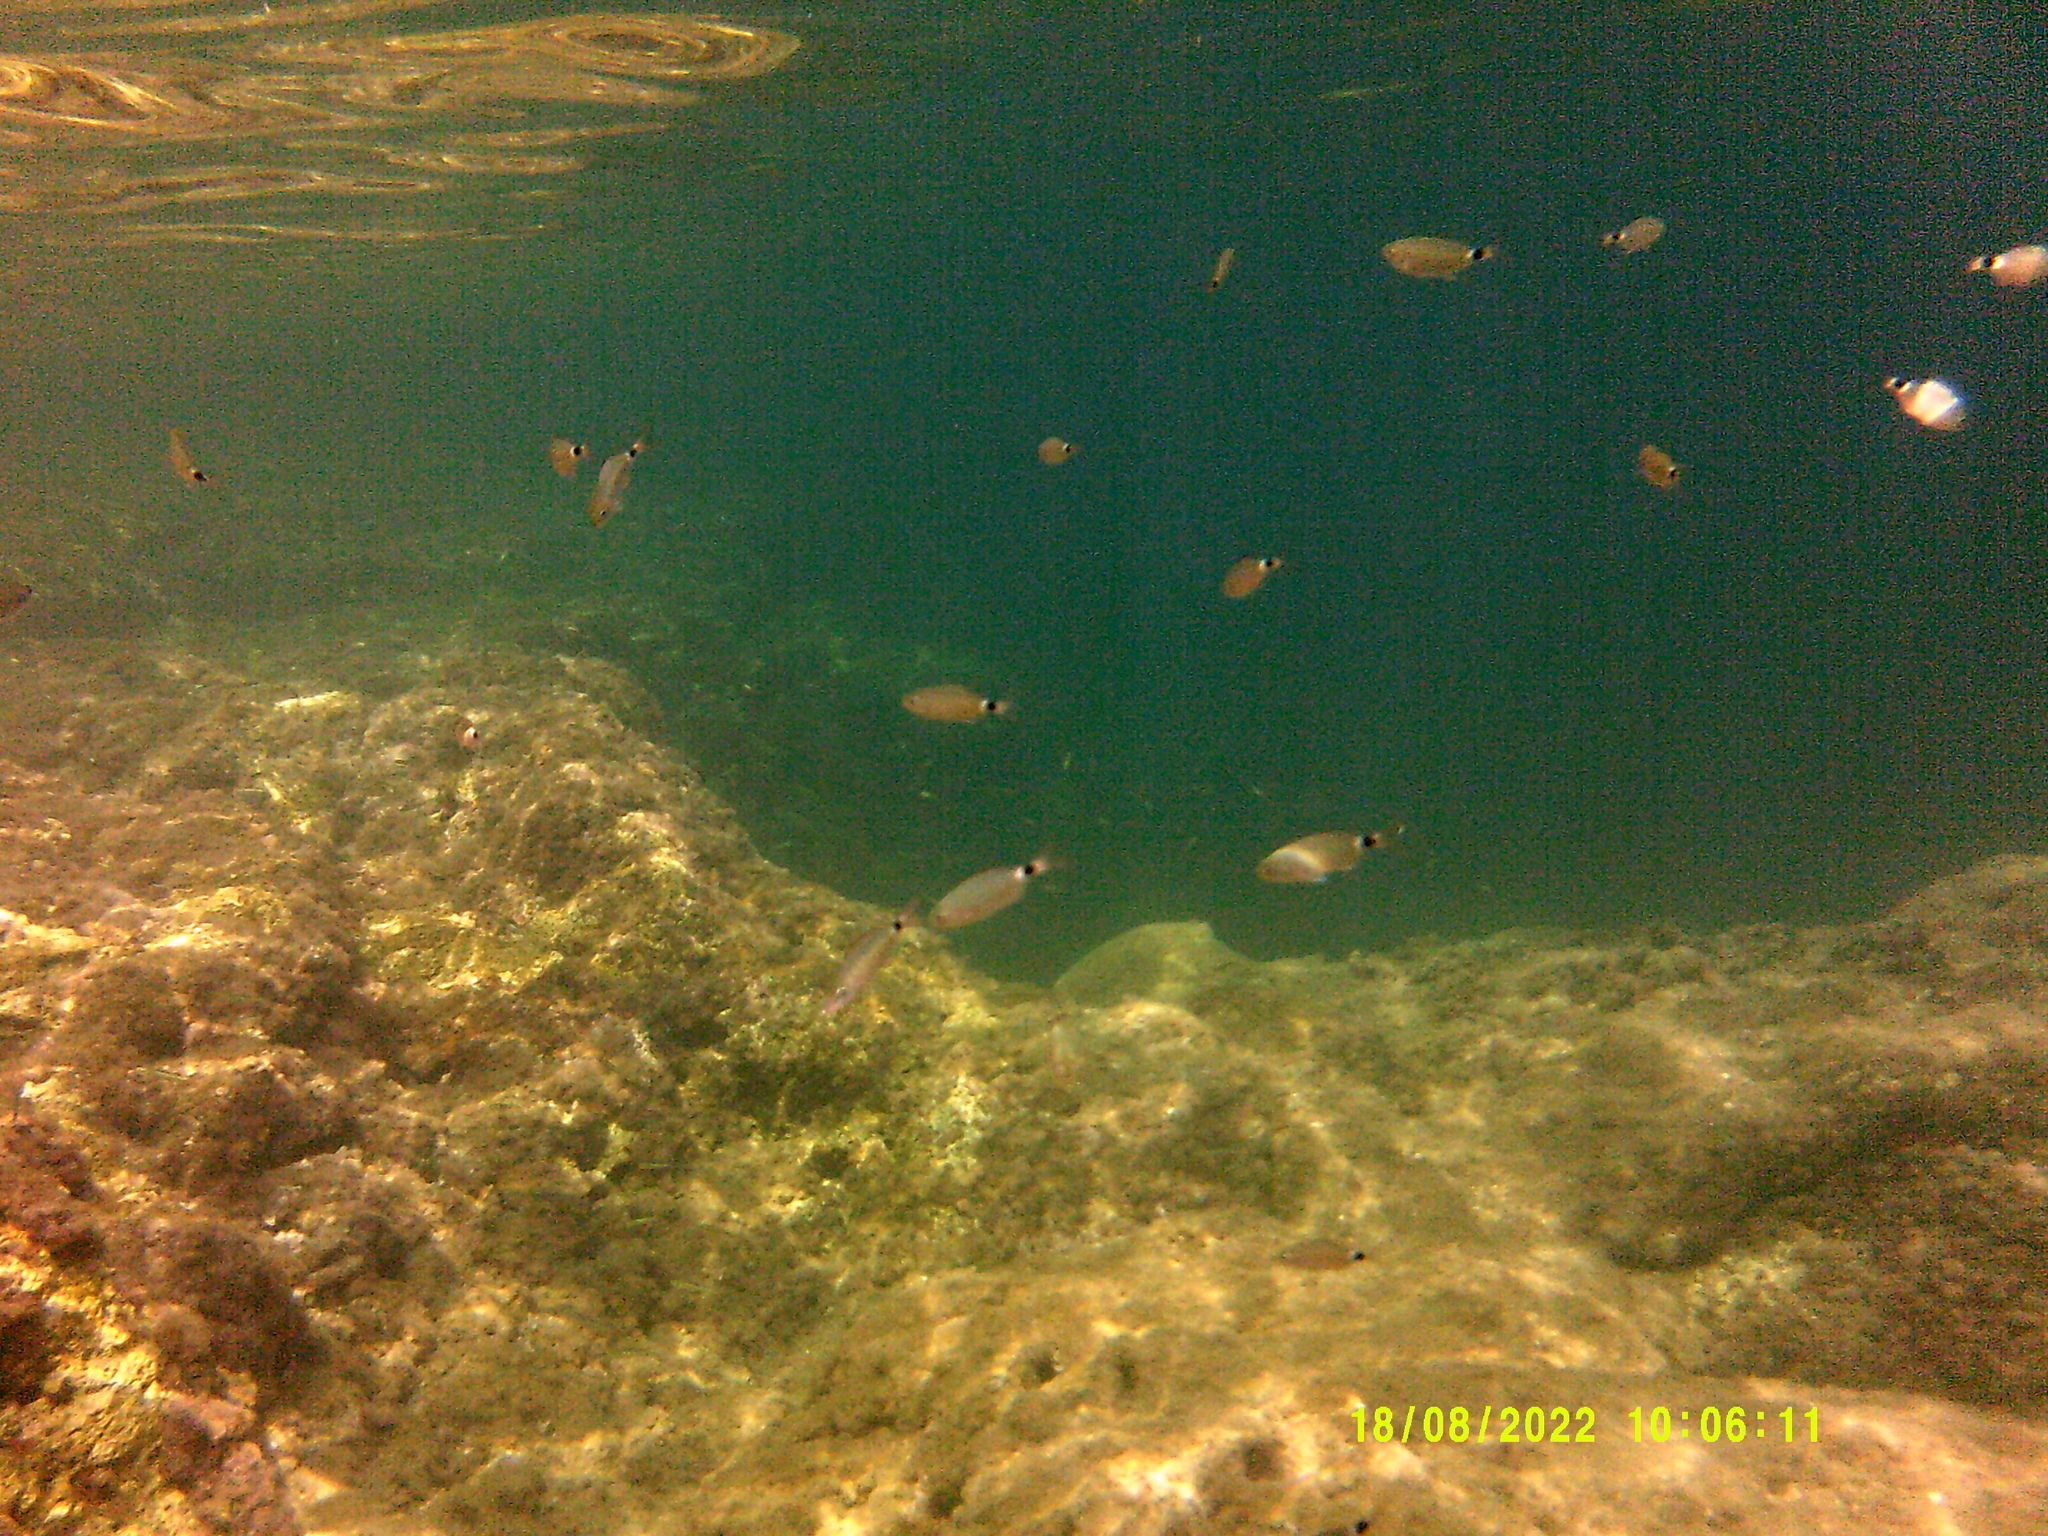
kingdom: Animalia
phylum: Chordata
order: Perciformes
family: Sparidae
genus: Oblada
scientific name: Oblada melanura
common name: Saddled seabream
